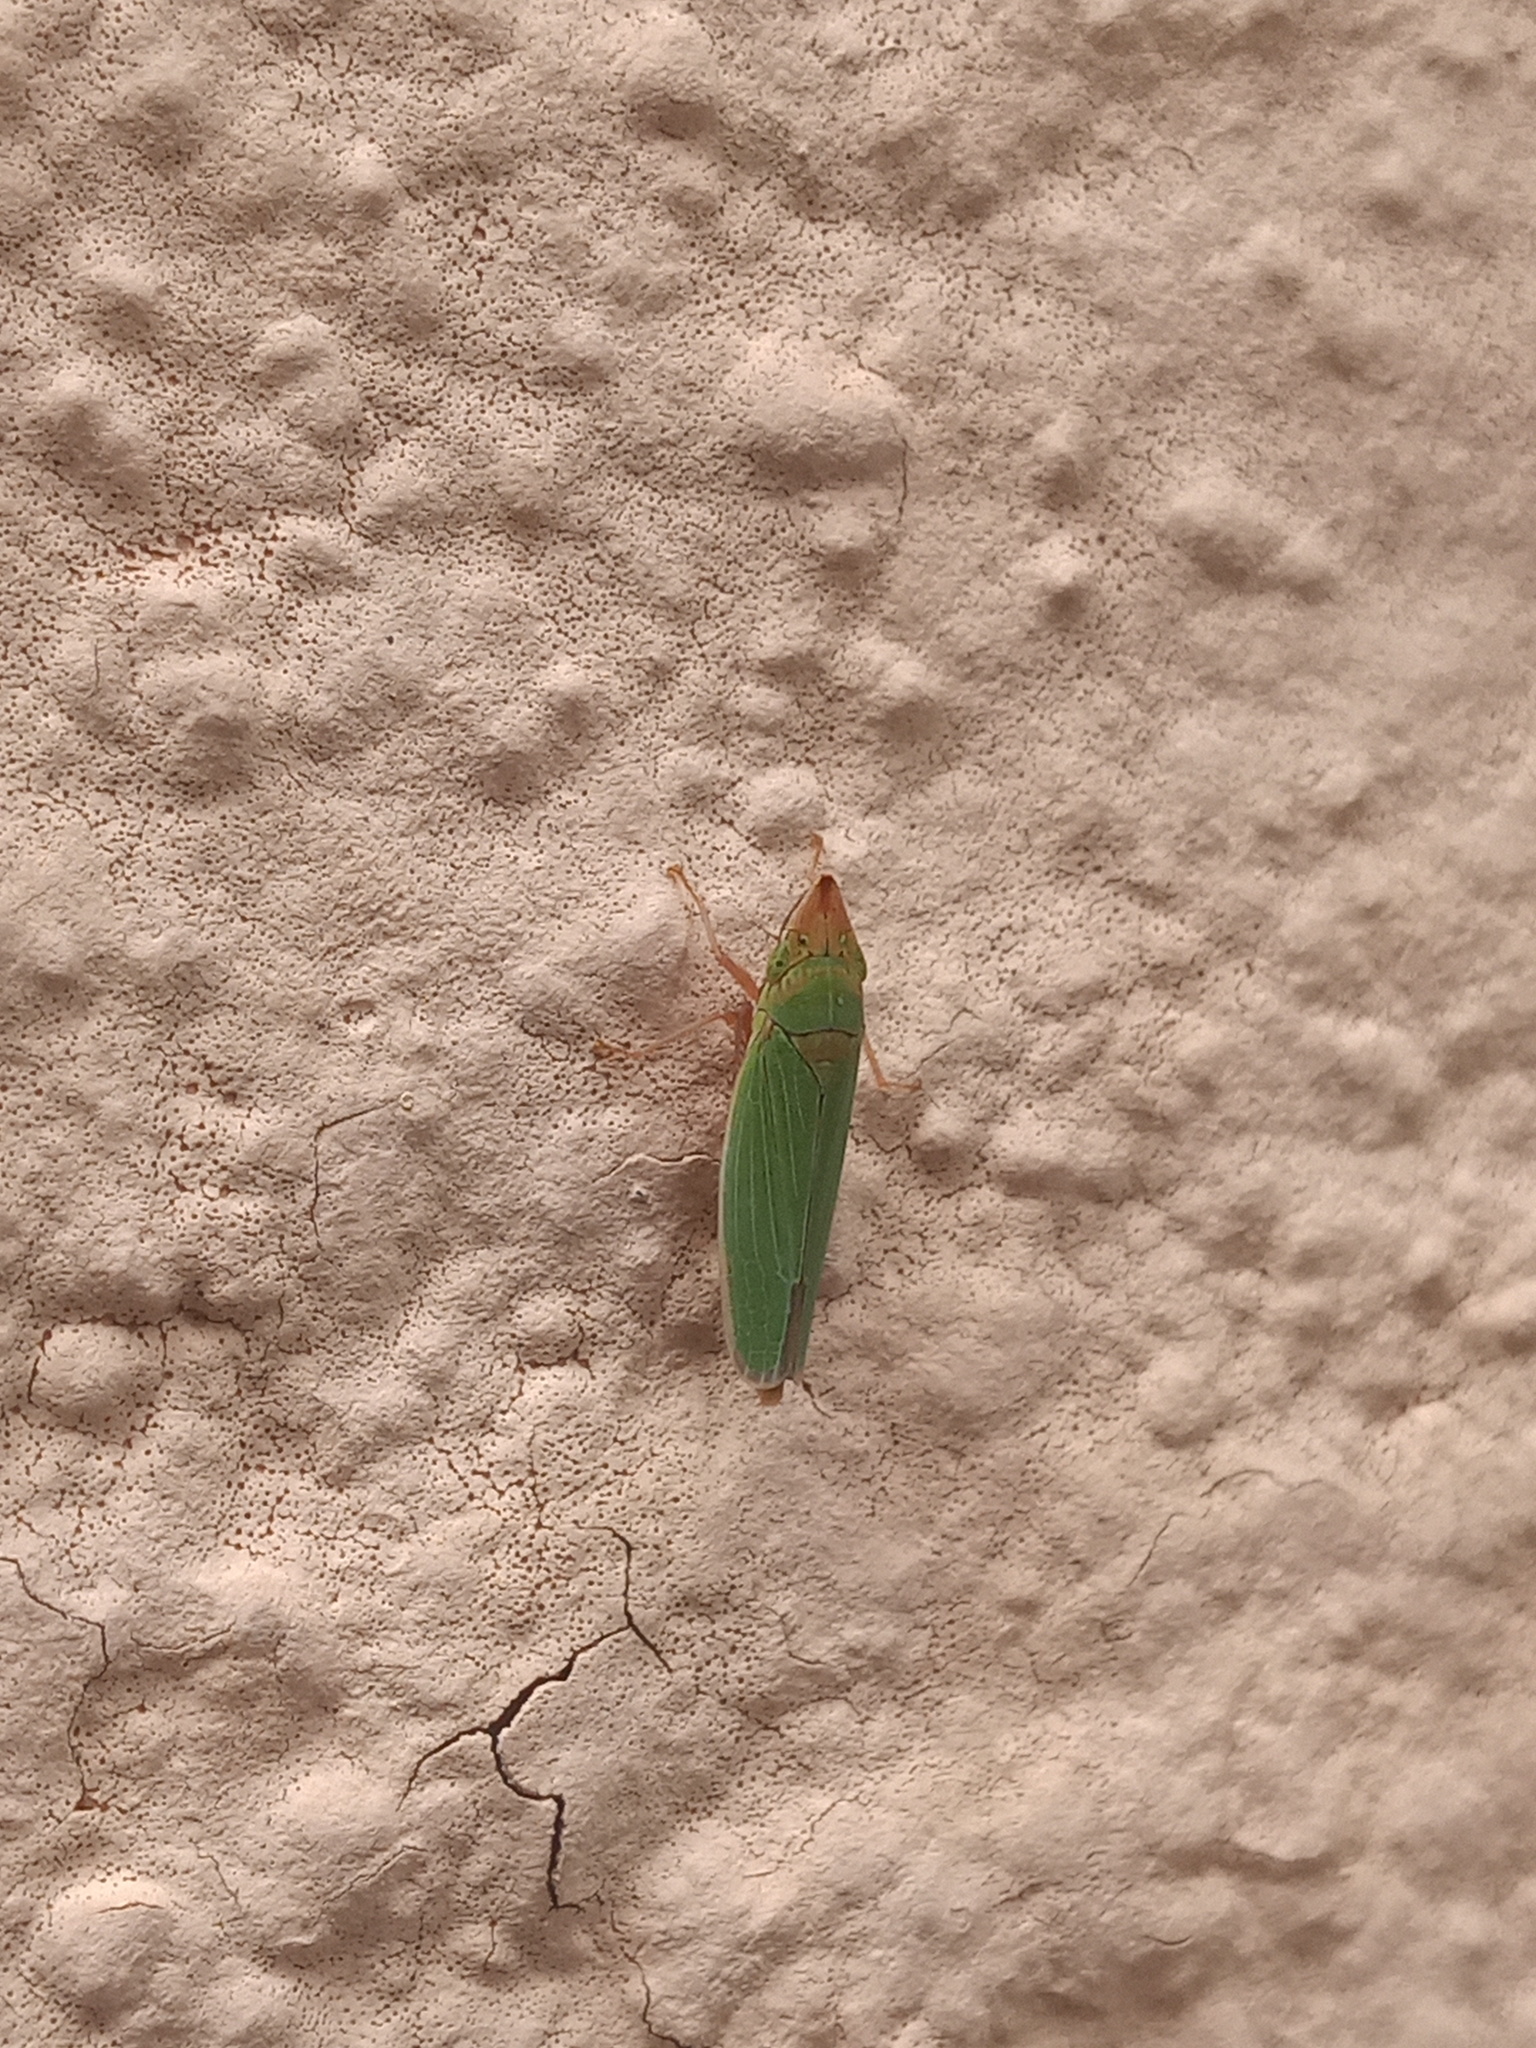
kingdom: Animalia
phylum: Arthropoda
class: Insecta
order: Hemiptera
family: Cicadellidae
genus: Draeculacephala
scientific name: Draeculacephala soluta
